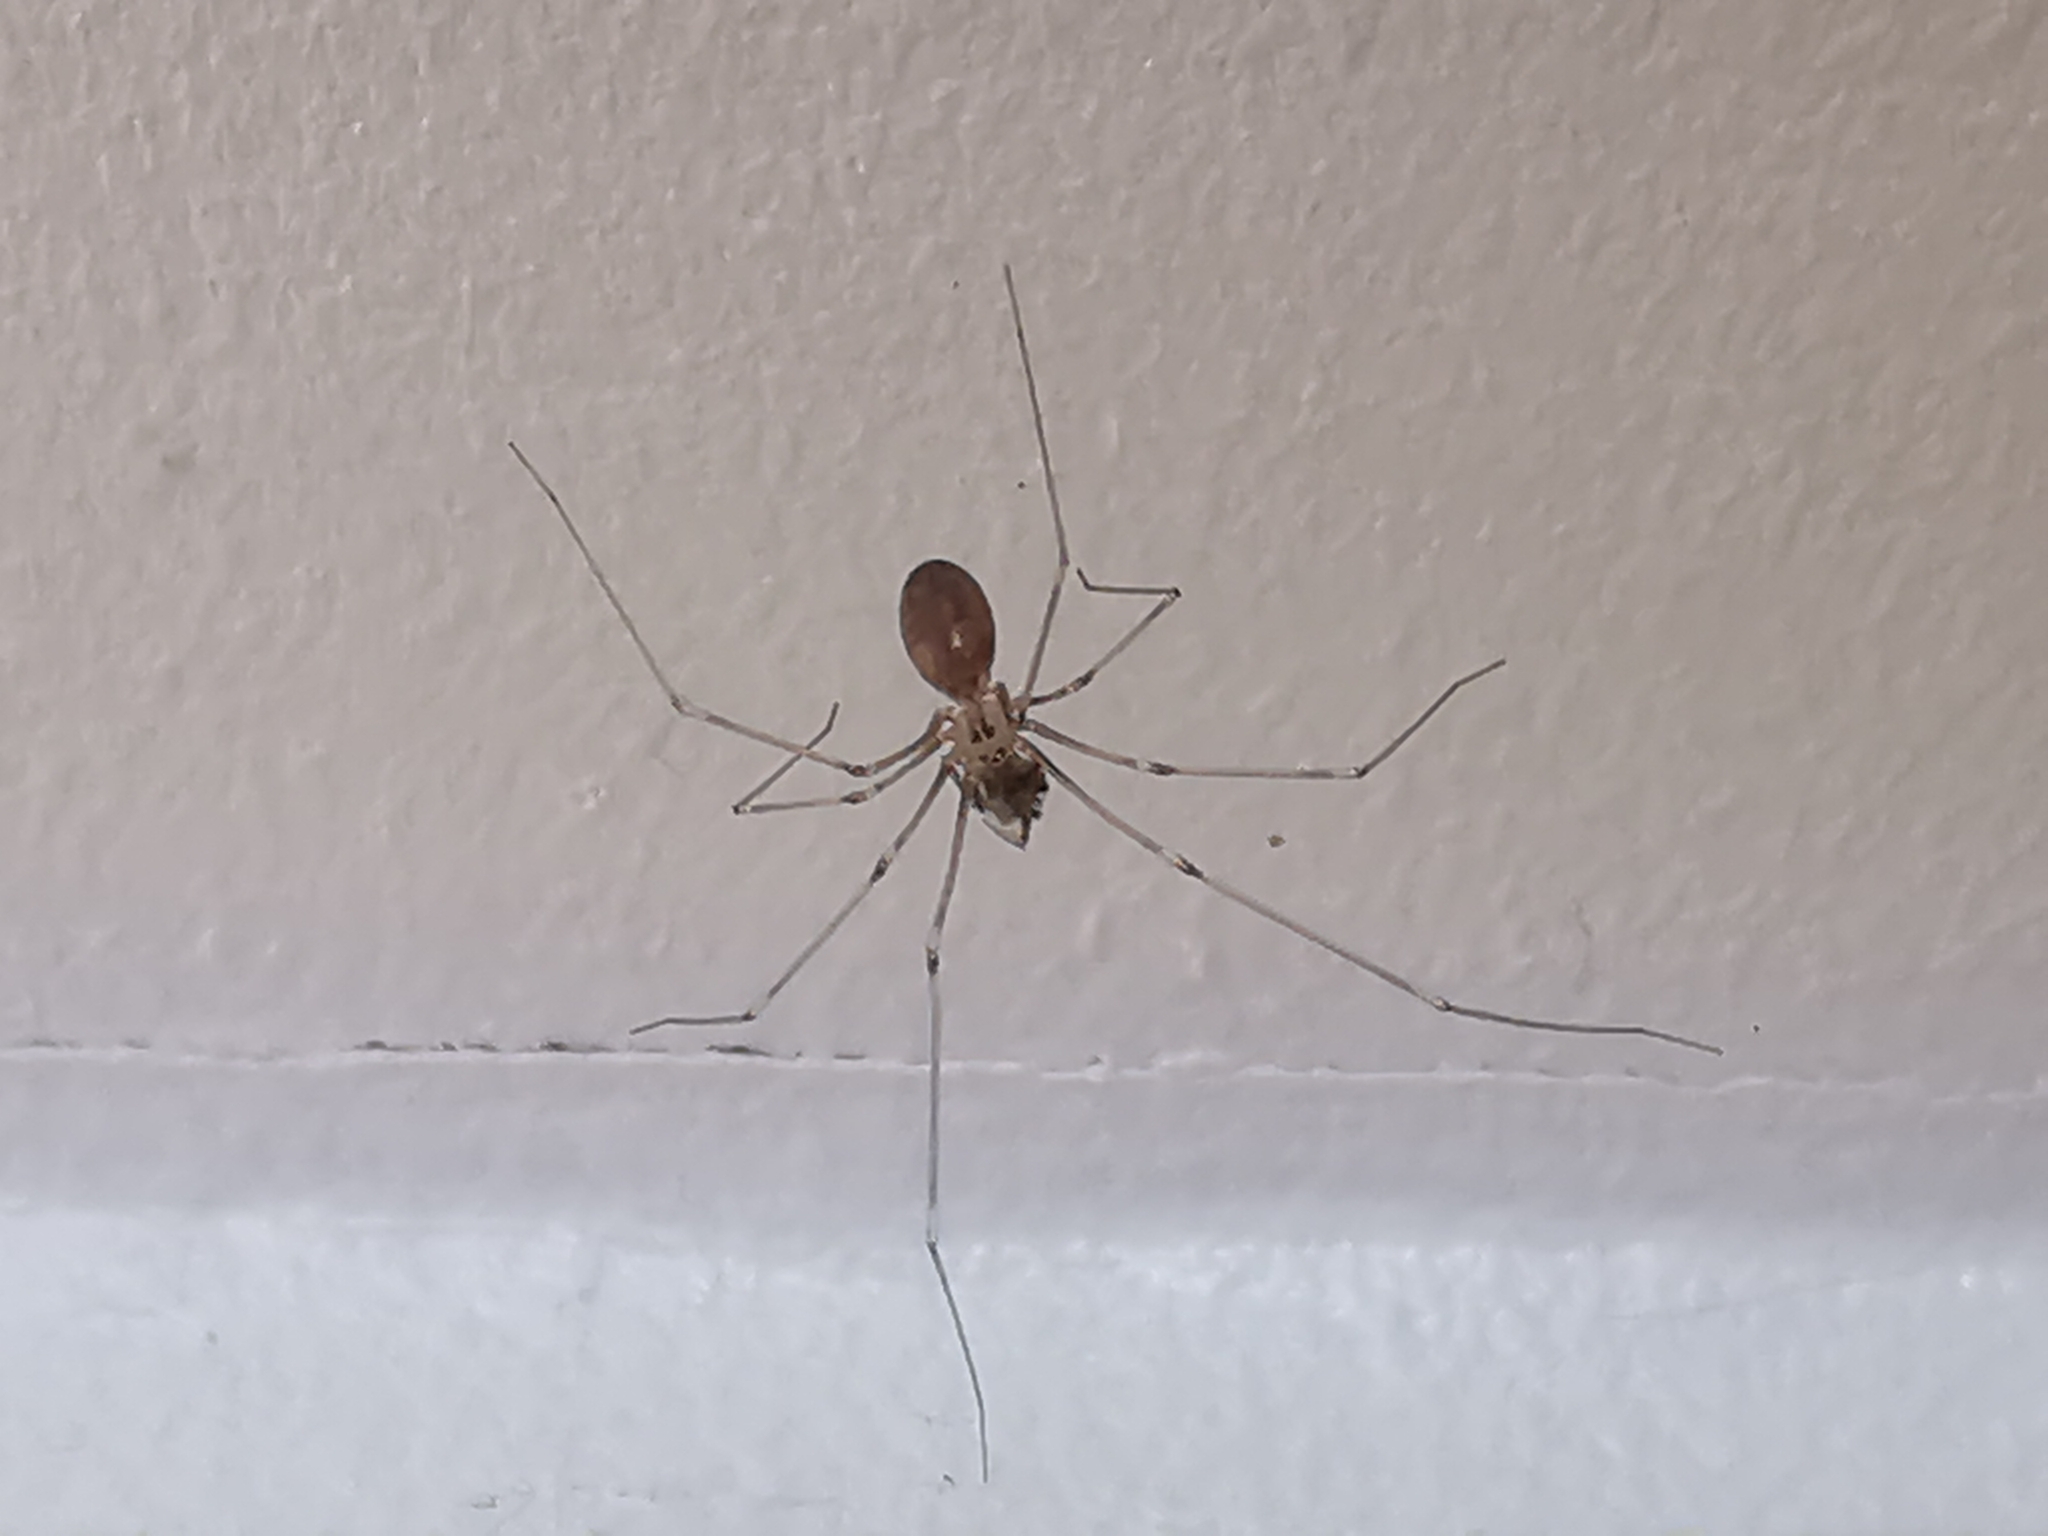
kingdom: Animalia
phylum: Arthropoda
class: Arachnida
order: Araneae
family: Pholcidae
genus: Pholcus
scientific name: Pholcus phalangioides
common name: Longbodied cellar spider
